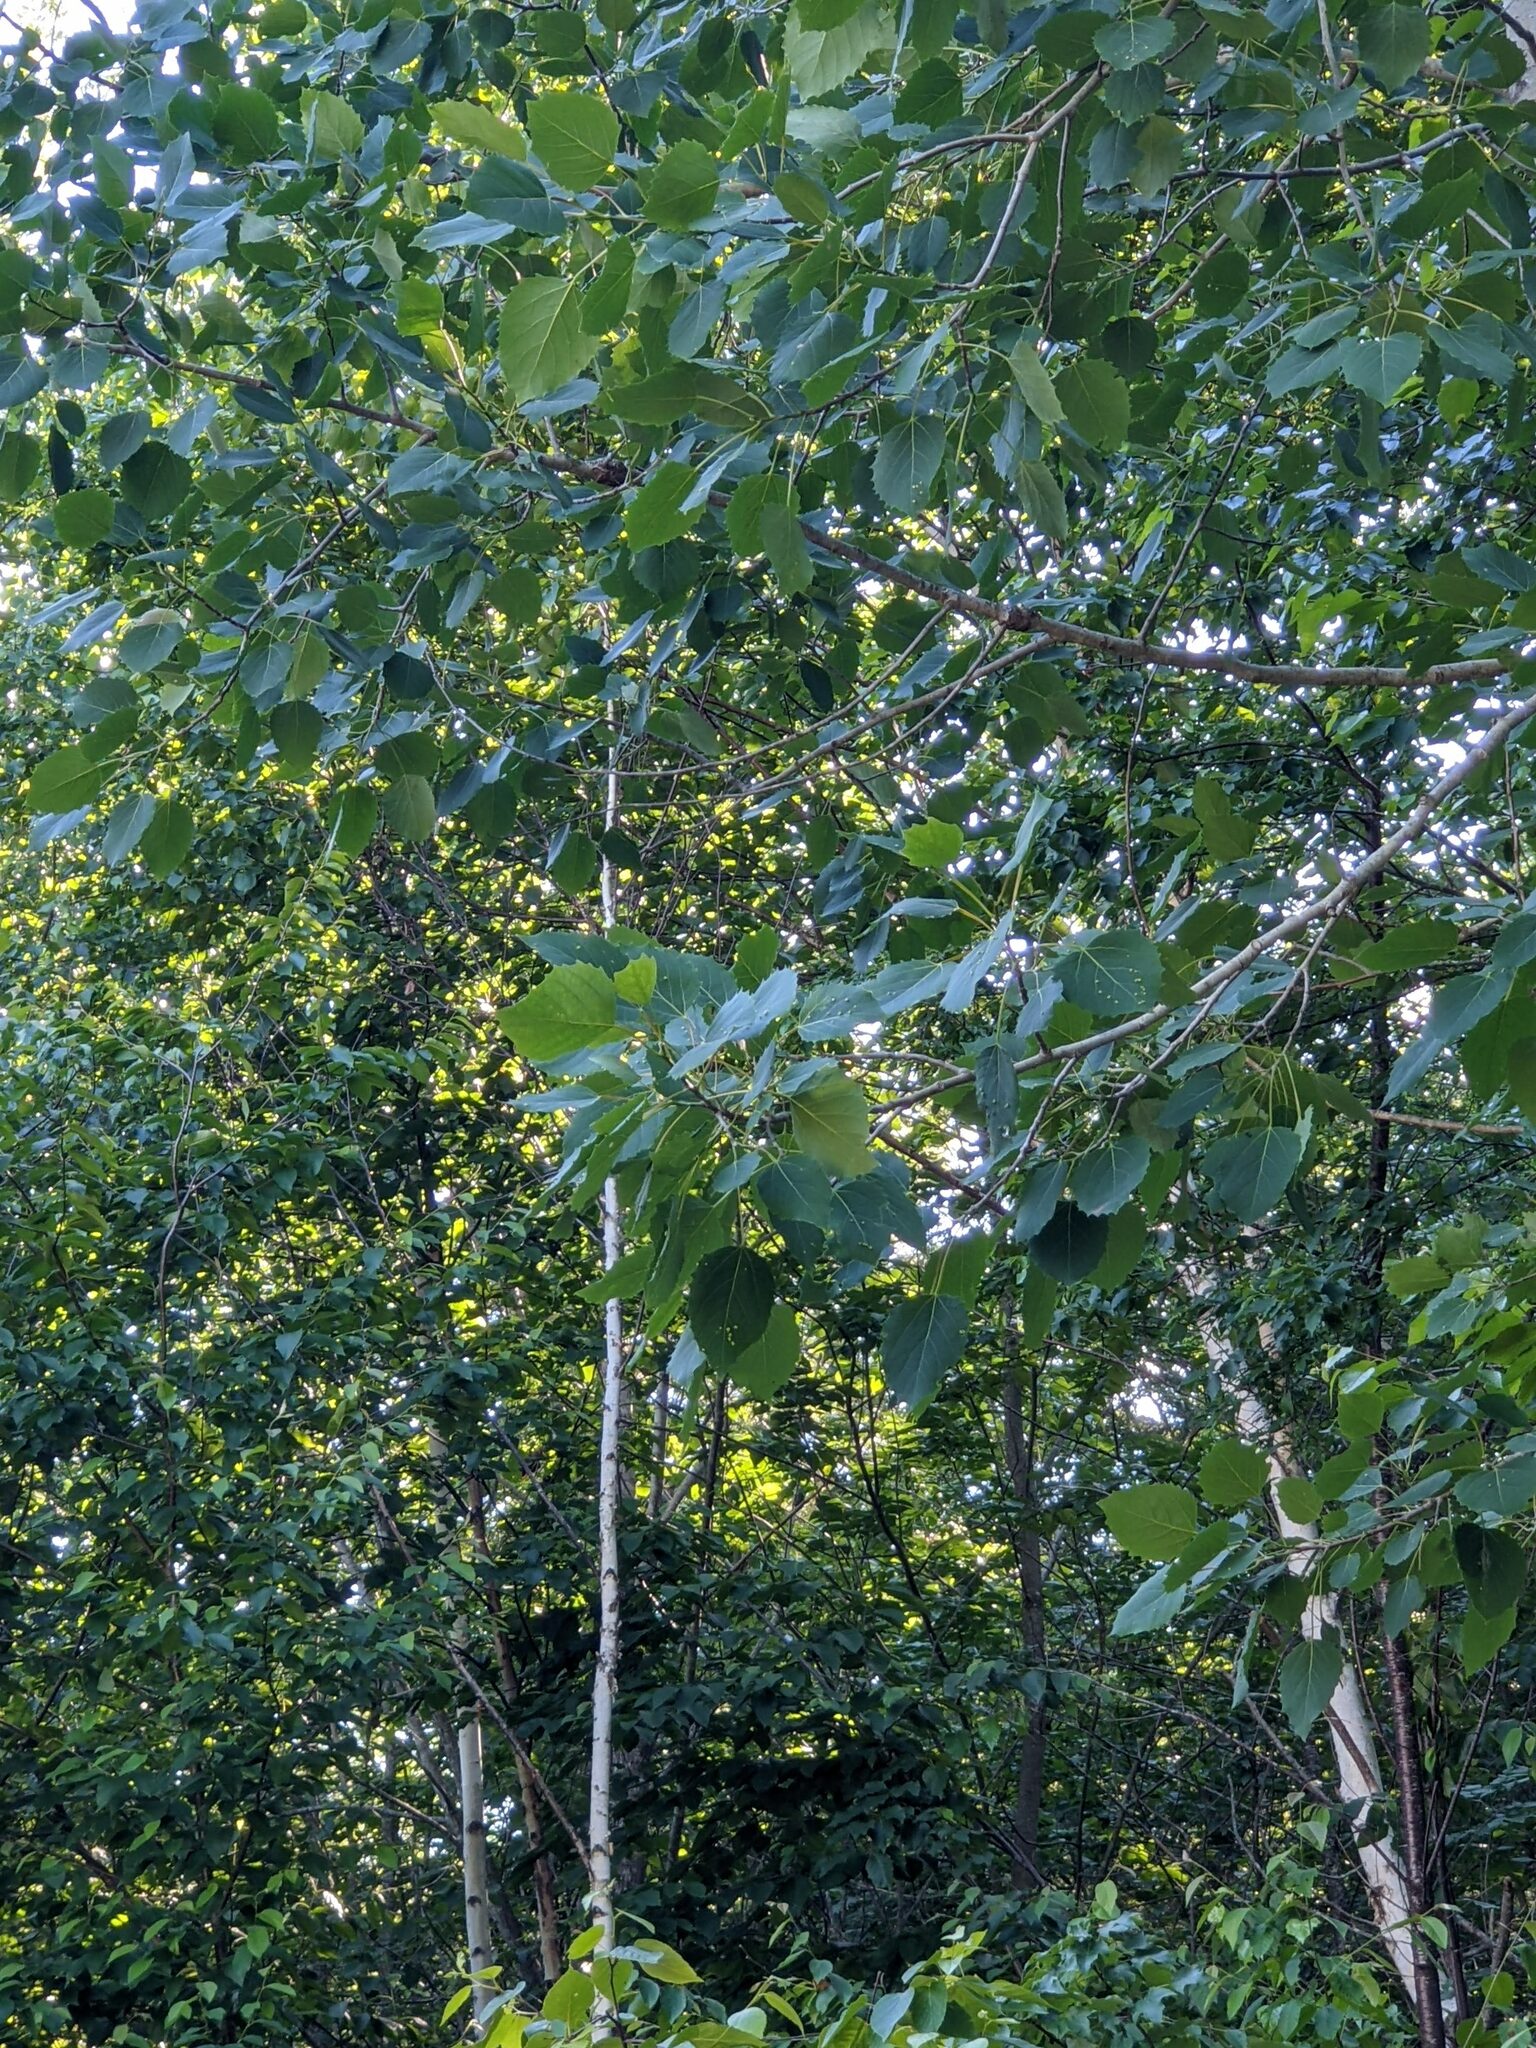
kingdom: Plantae
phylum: Tracheophyta
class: Magnoliopsida
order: Malpighiales
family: Salicaceae
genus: Populus
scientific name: Populus grandidentata
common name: Bigtooth aspen
